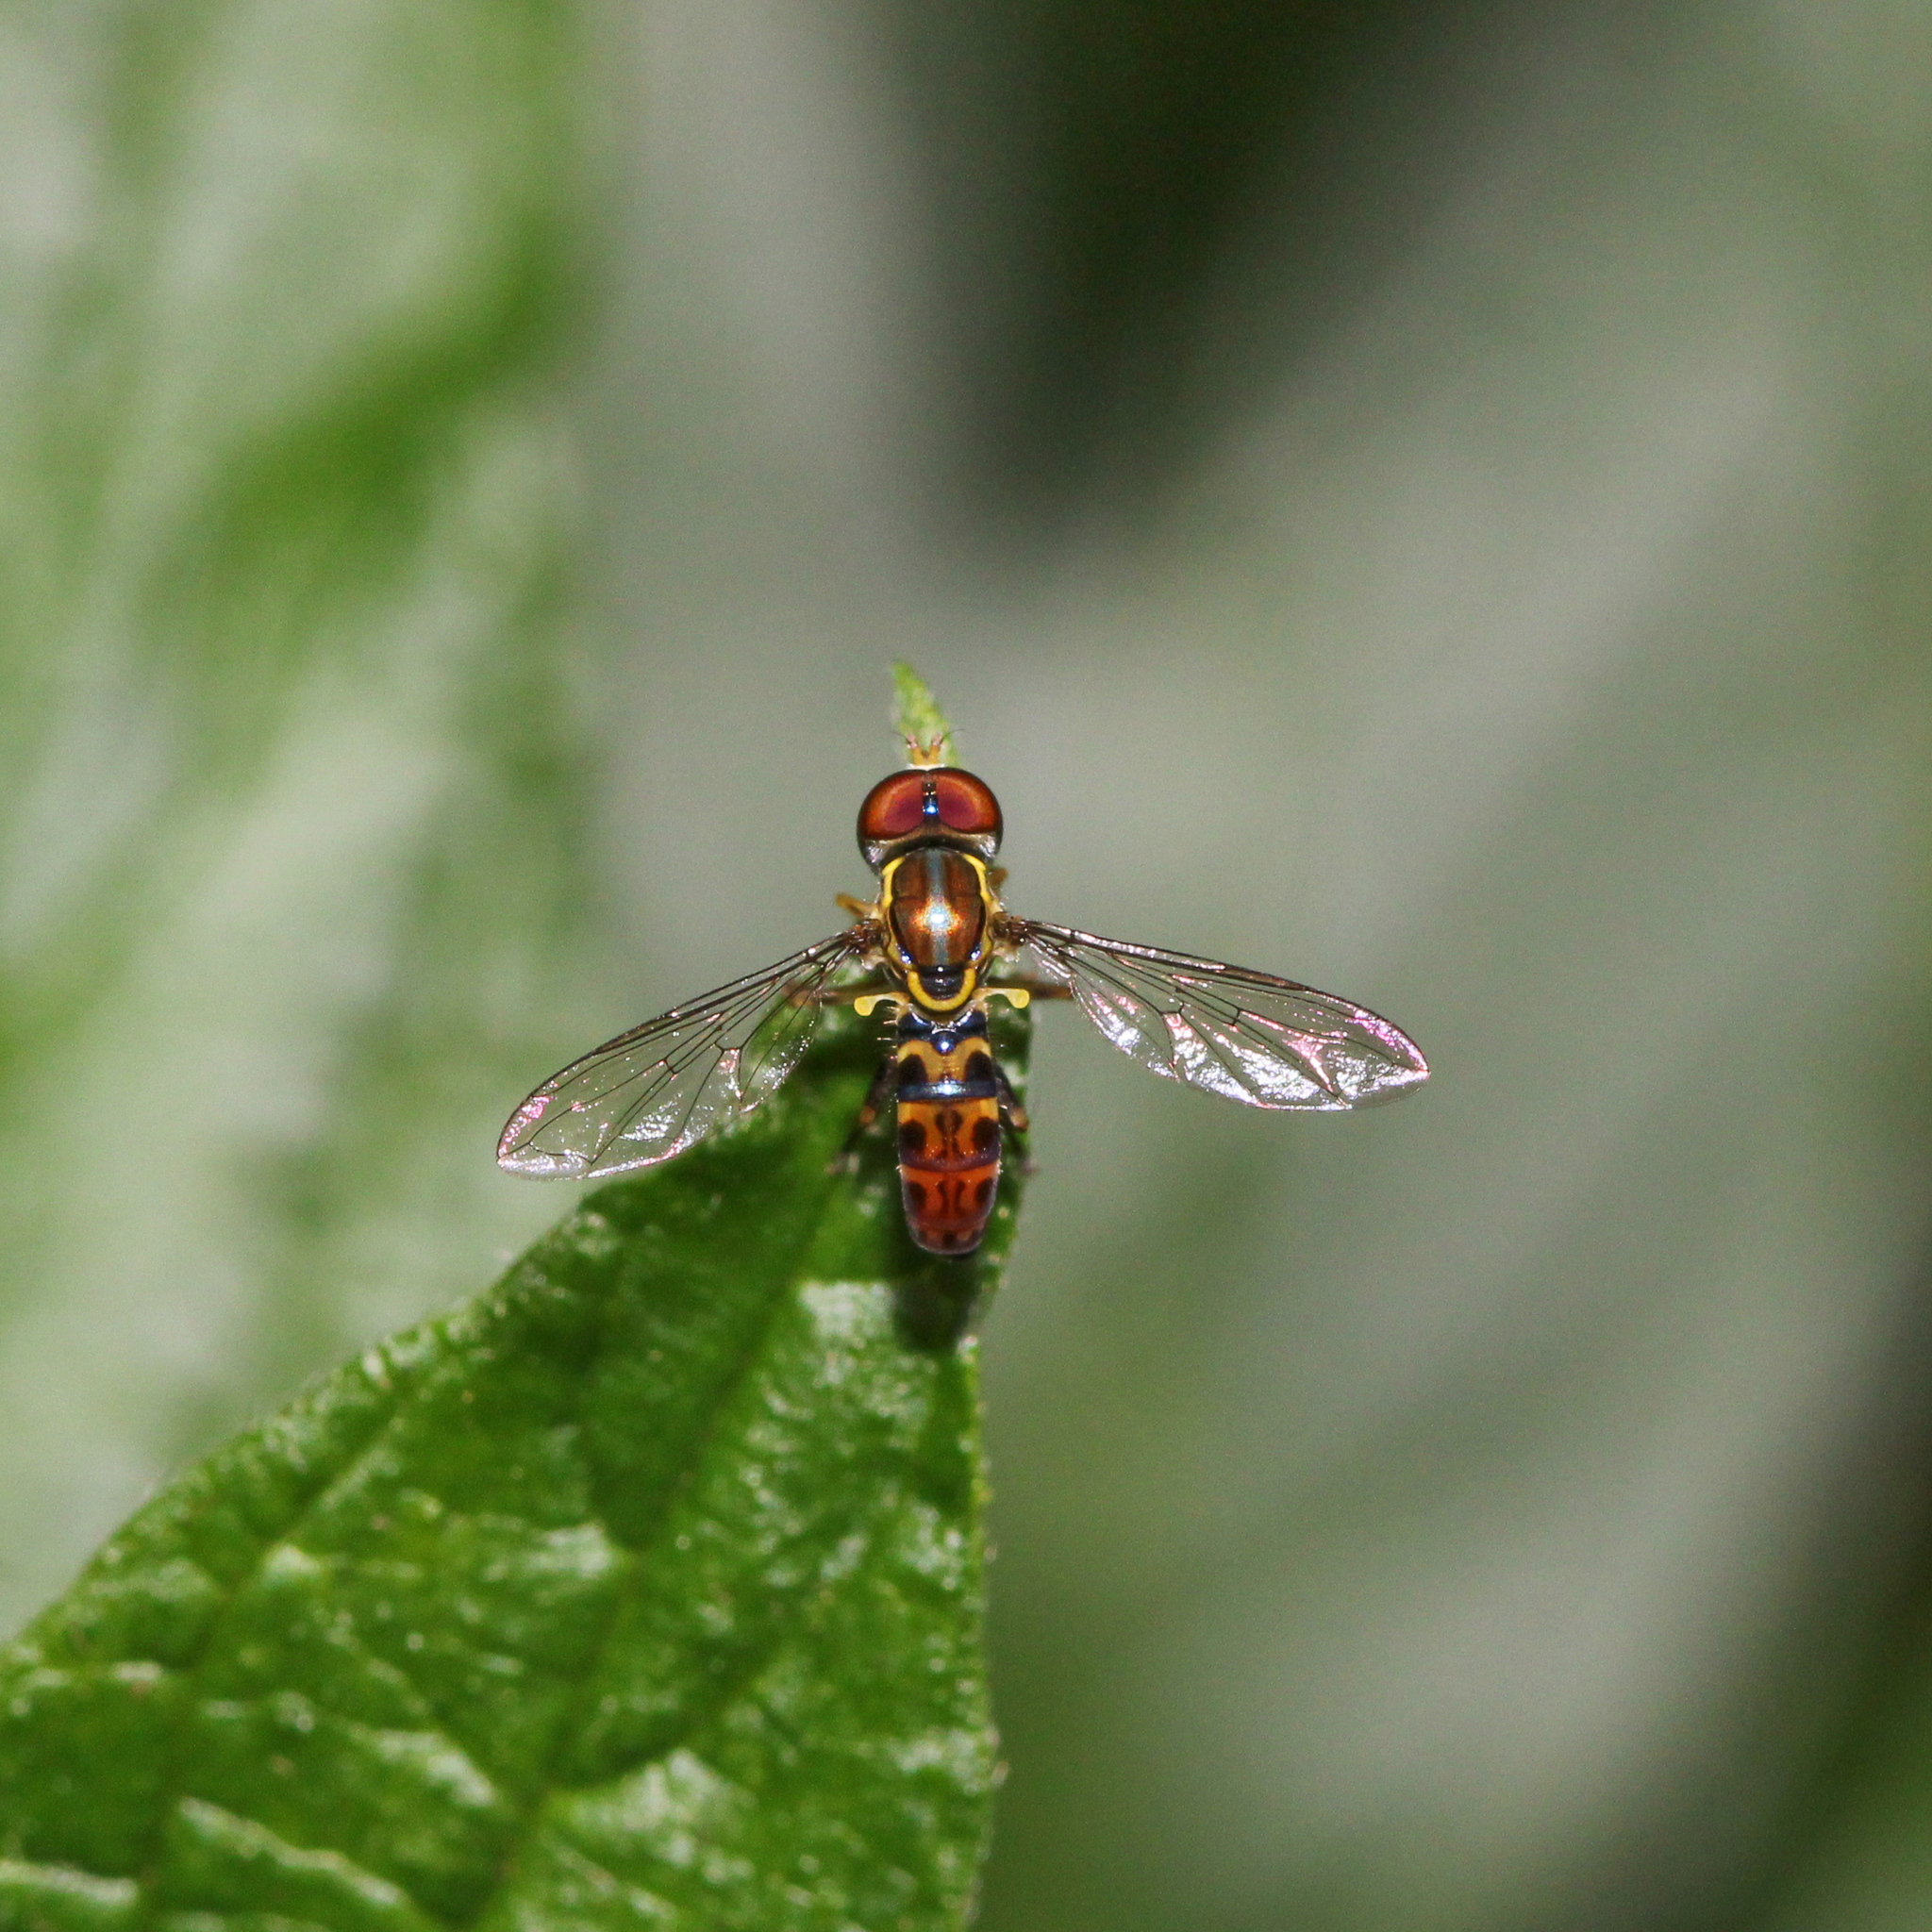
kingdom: Animalia
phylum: Arthropoda
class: Insecta
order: Diptera
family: Syrphidae
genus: Toxomerus
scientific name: Toxomerus arcifer
